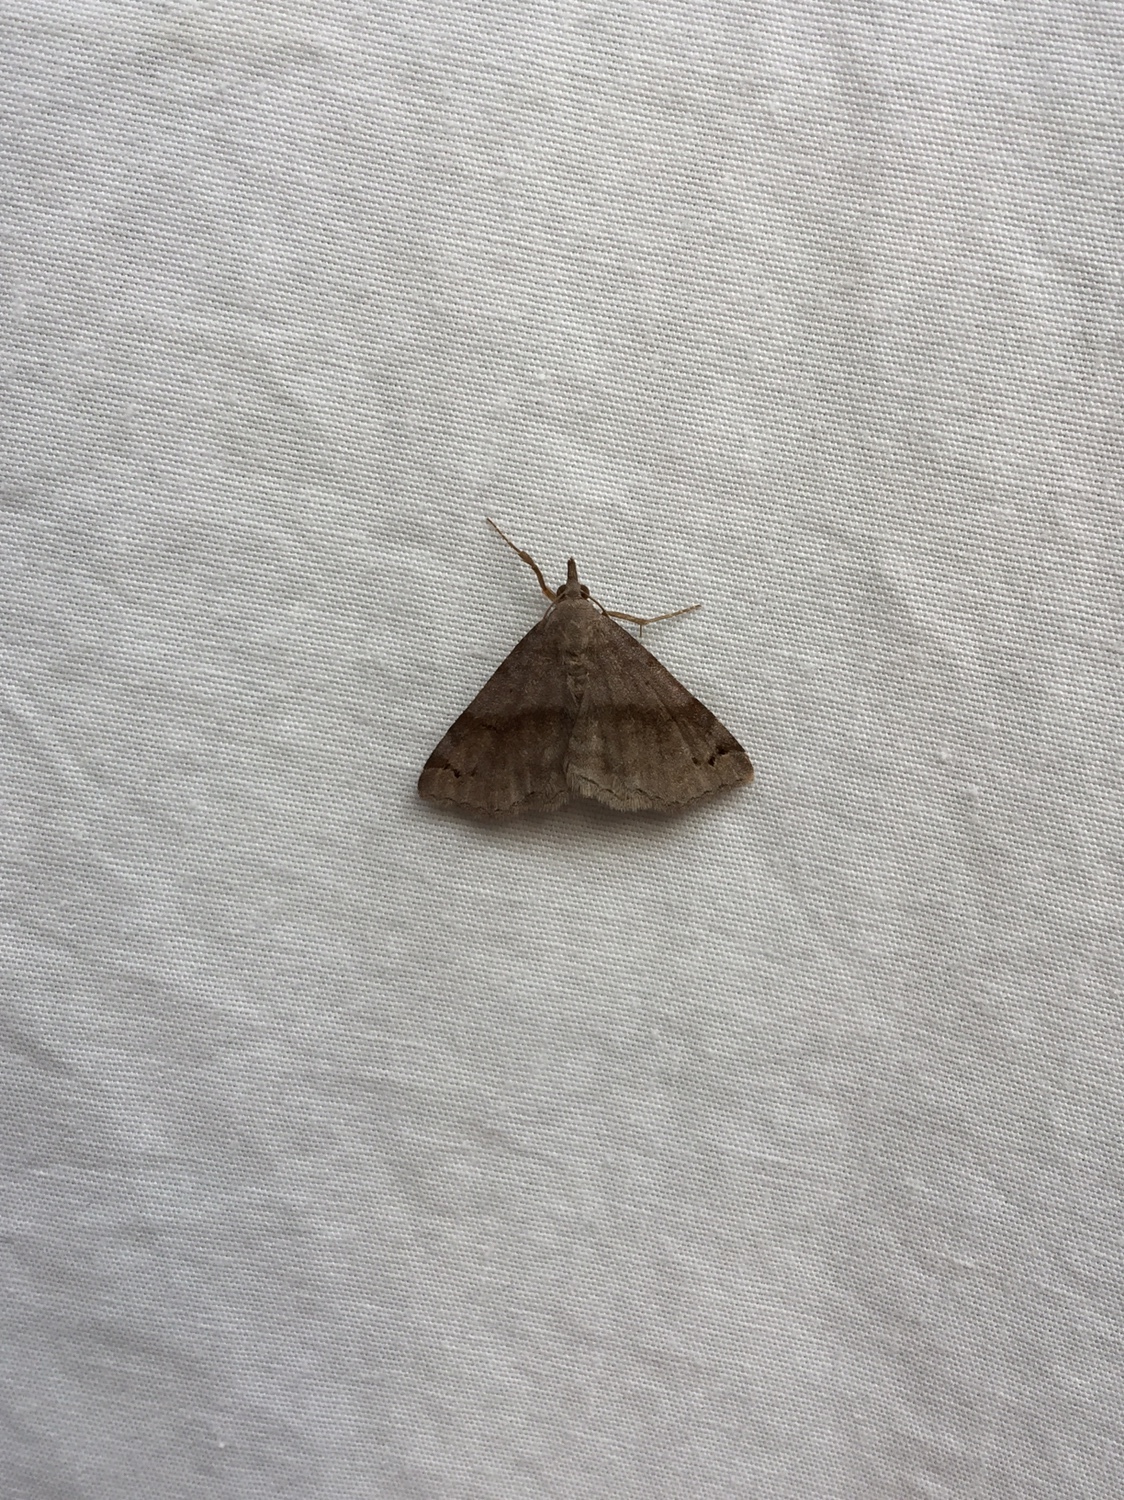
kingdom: Animalia
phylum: Arthropoda
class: Insecta
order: Lepidoptera
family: Erebidae
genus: Spargaloma
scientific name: Spargaloma sexpunctata
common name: Six-spotted gray
